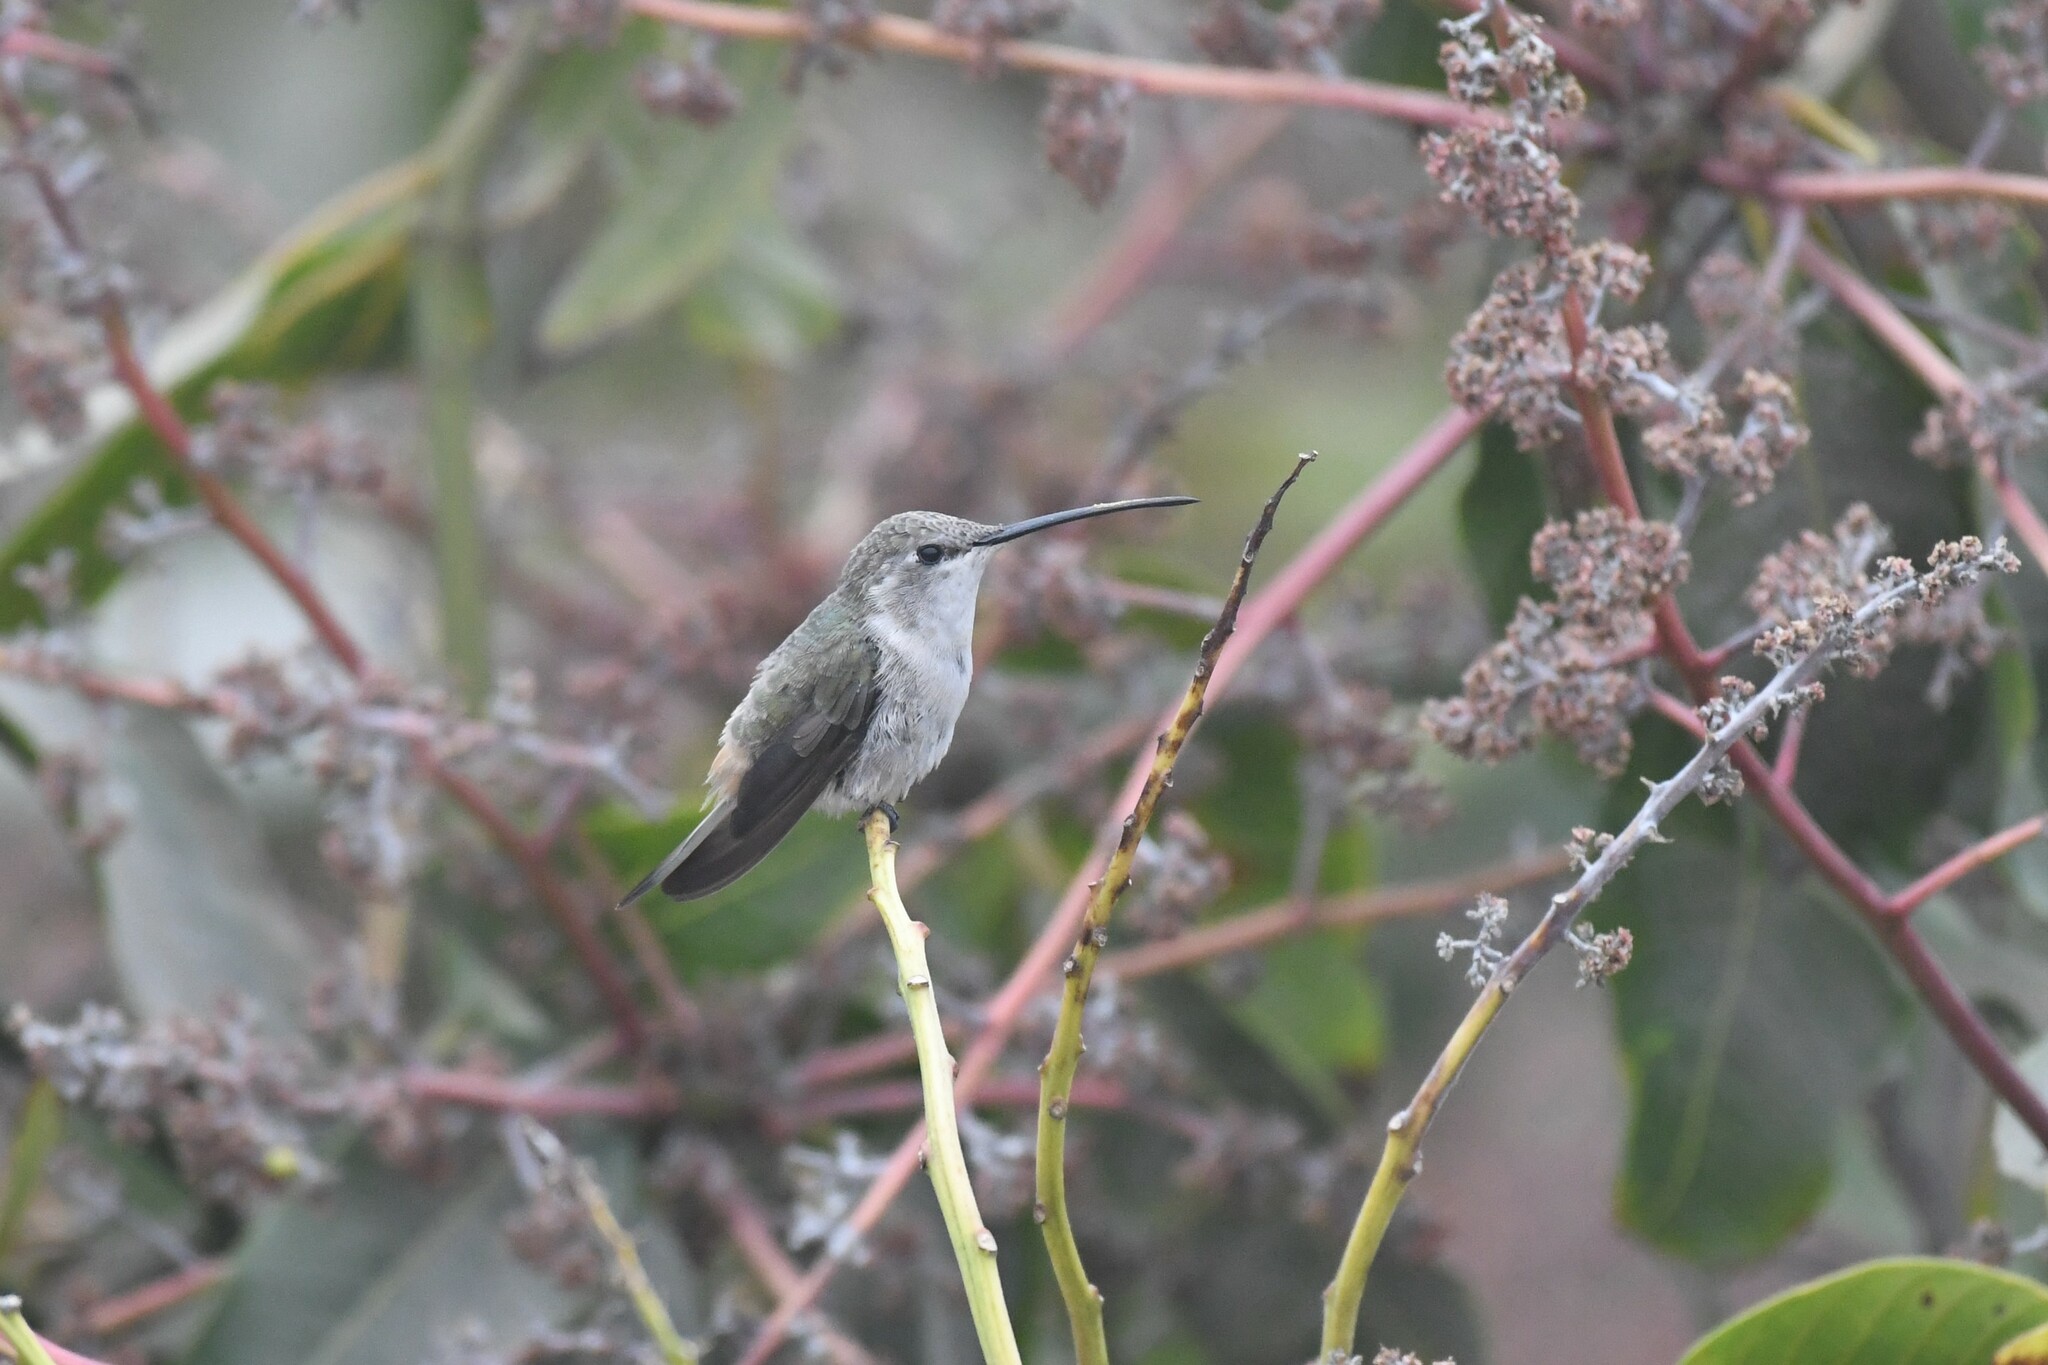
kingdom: Animalia
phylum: Chordata
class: Aves
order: Apodiformes
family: Trochilidae
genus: Rhodopis
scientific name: Rhodopis vesper
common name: Oasis hummingbird
